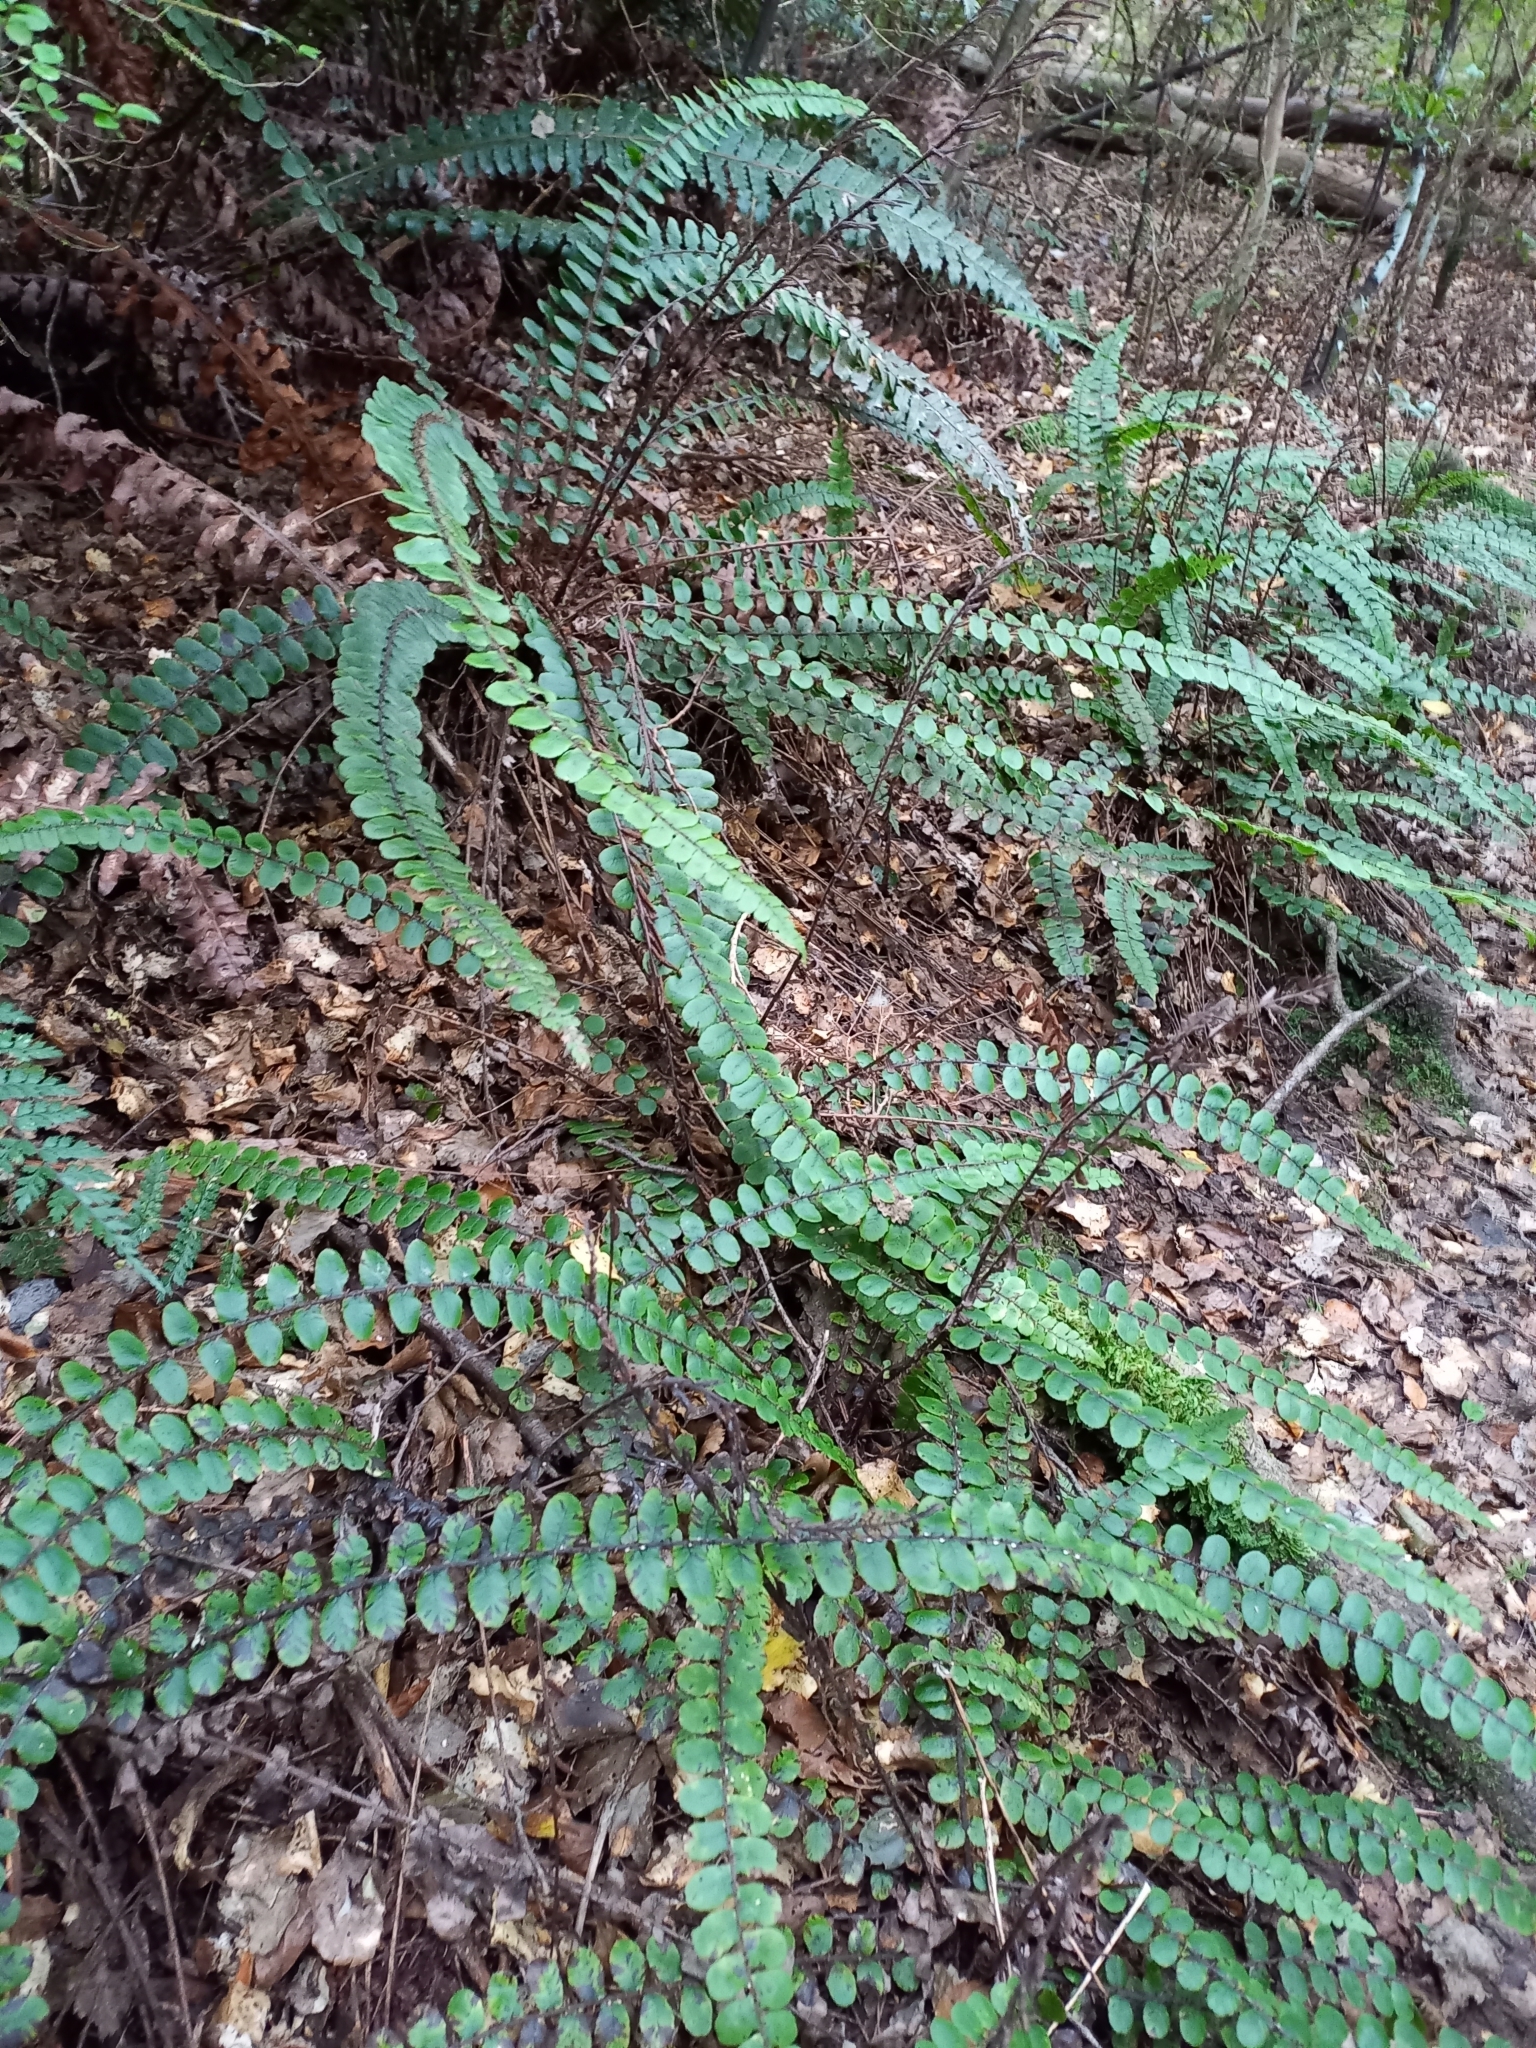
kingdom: Plantae
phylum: Tracheophyta
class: Polypodiopsida
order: Polypodiales
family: Blechnaceae
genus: Cranfillia
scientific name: Cranfillia fluviatilis
